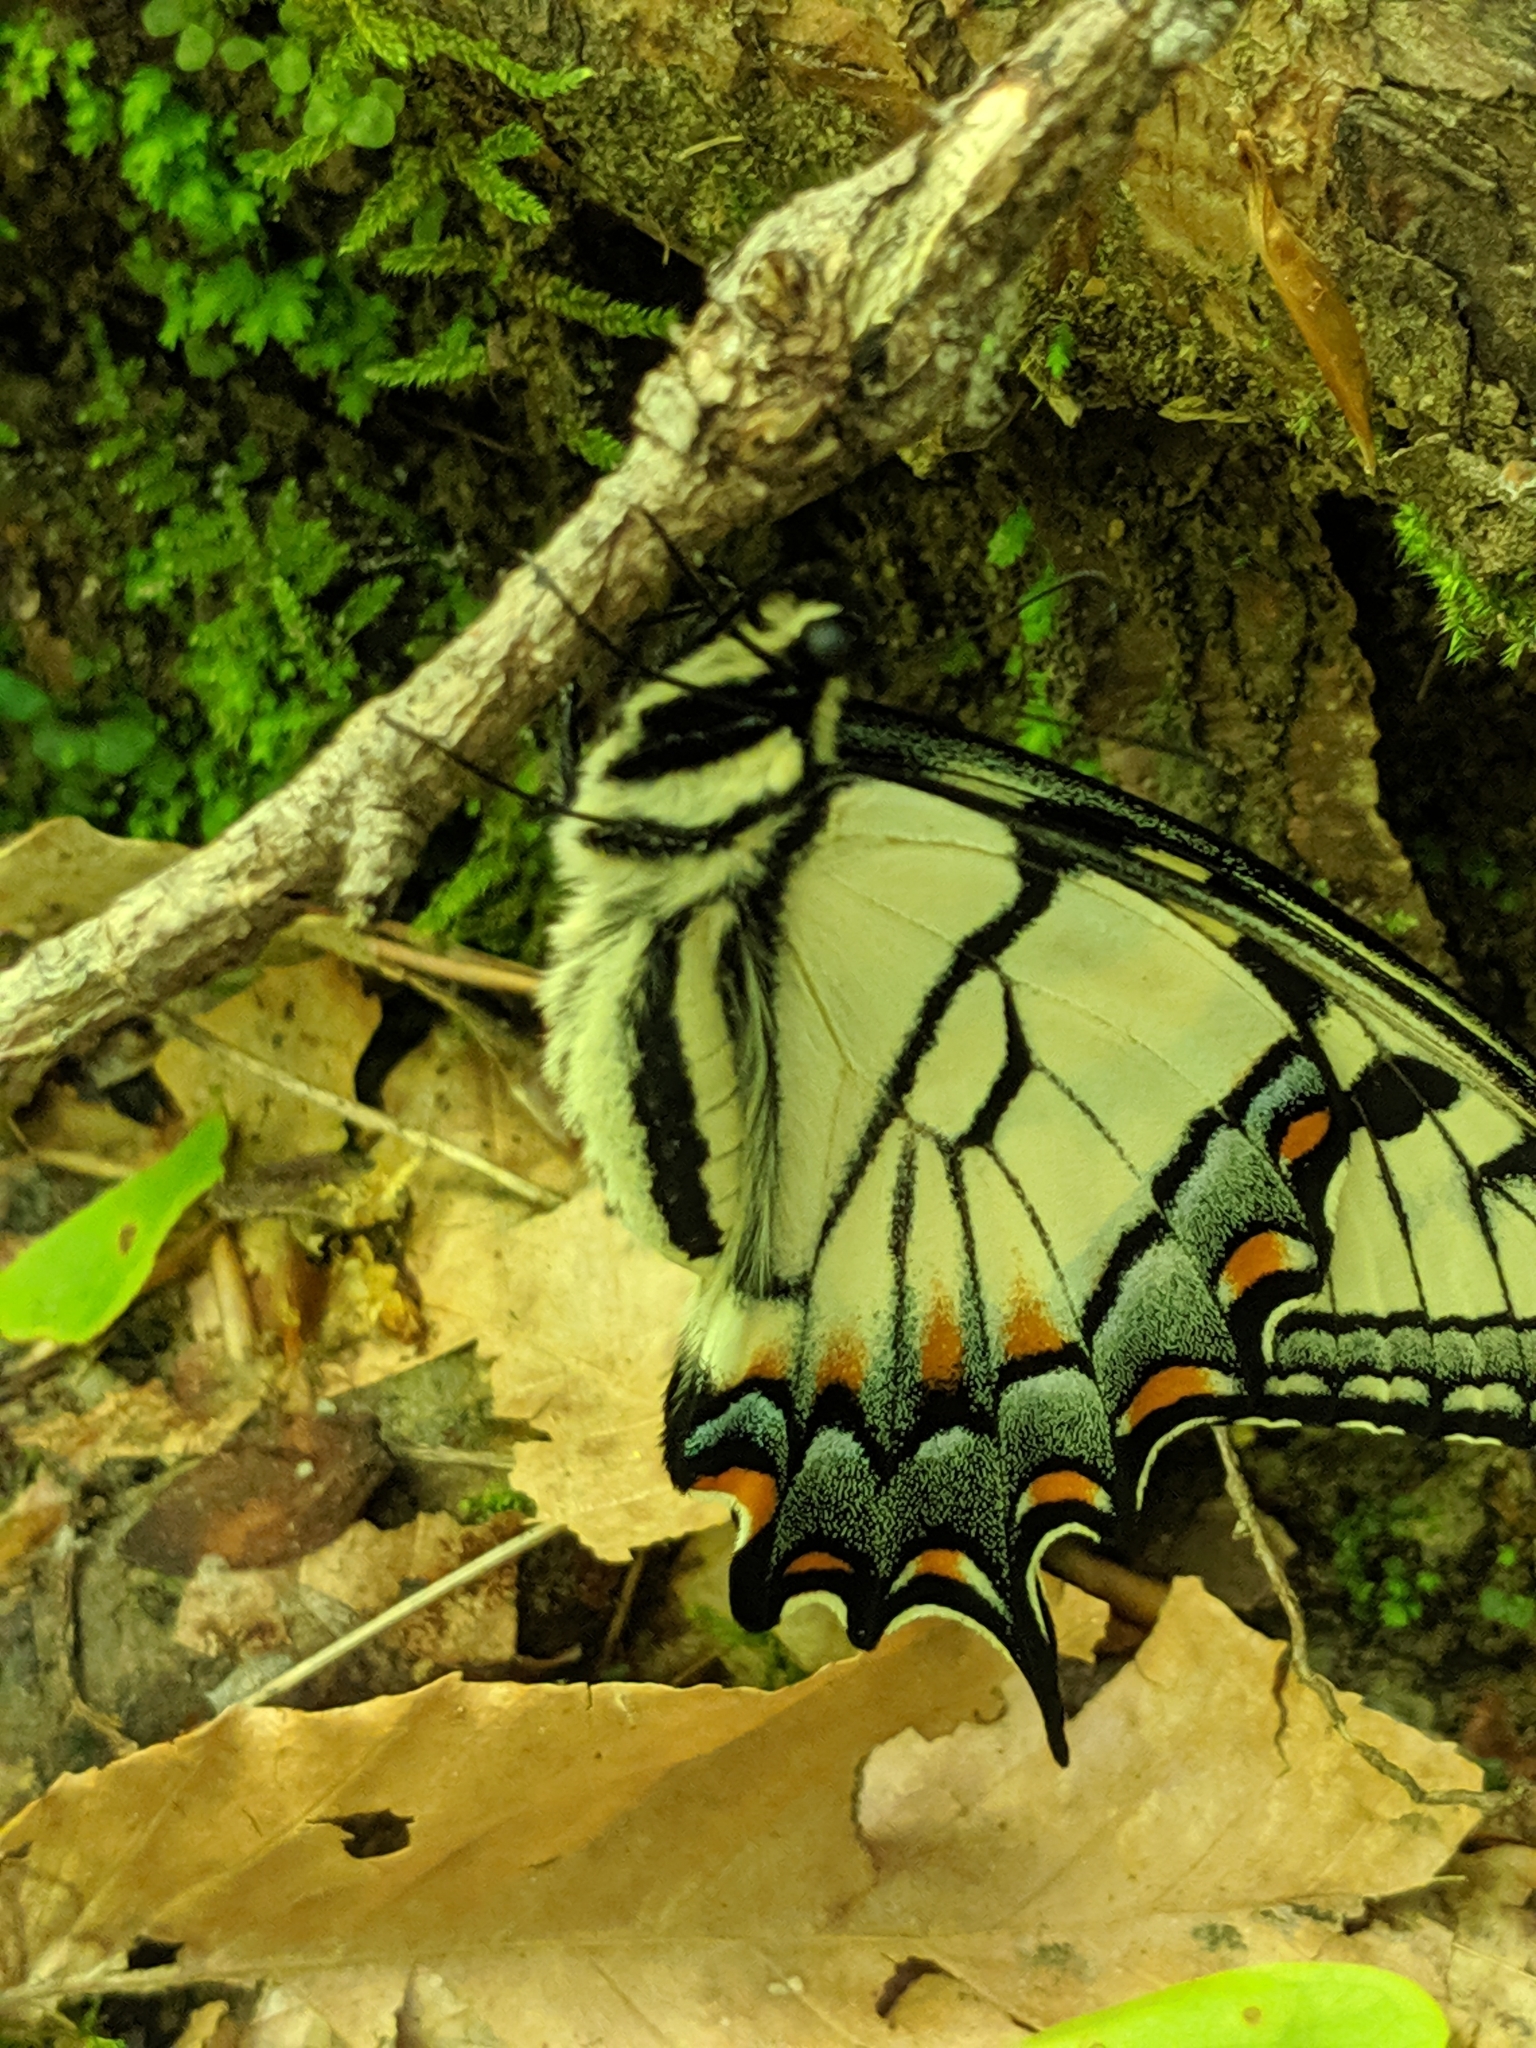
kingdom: Animalia
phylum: Arthropoda
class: Insecta
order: Lepidoptera
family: Papilionidae
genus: Papilio
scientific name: Papilio glaucus
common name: Tiger swallowtail
